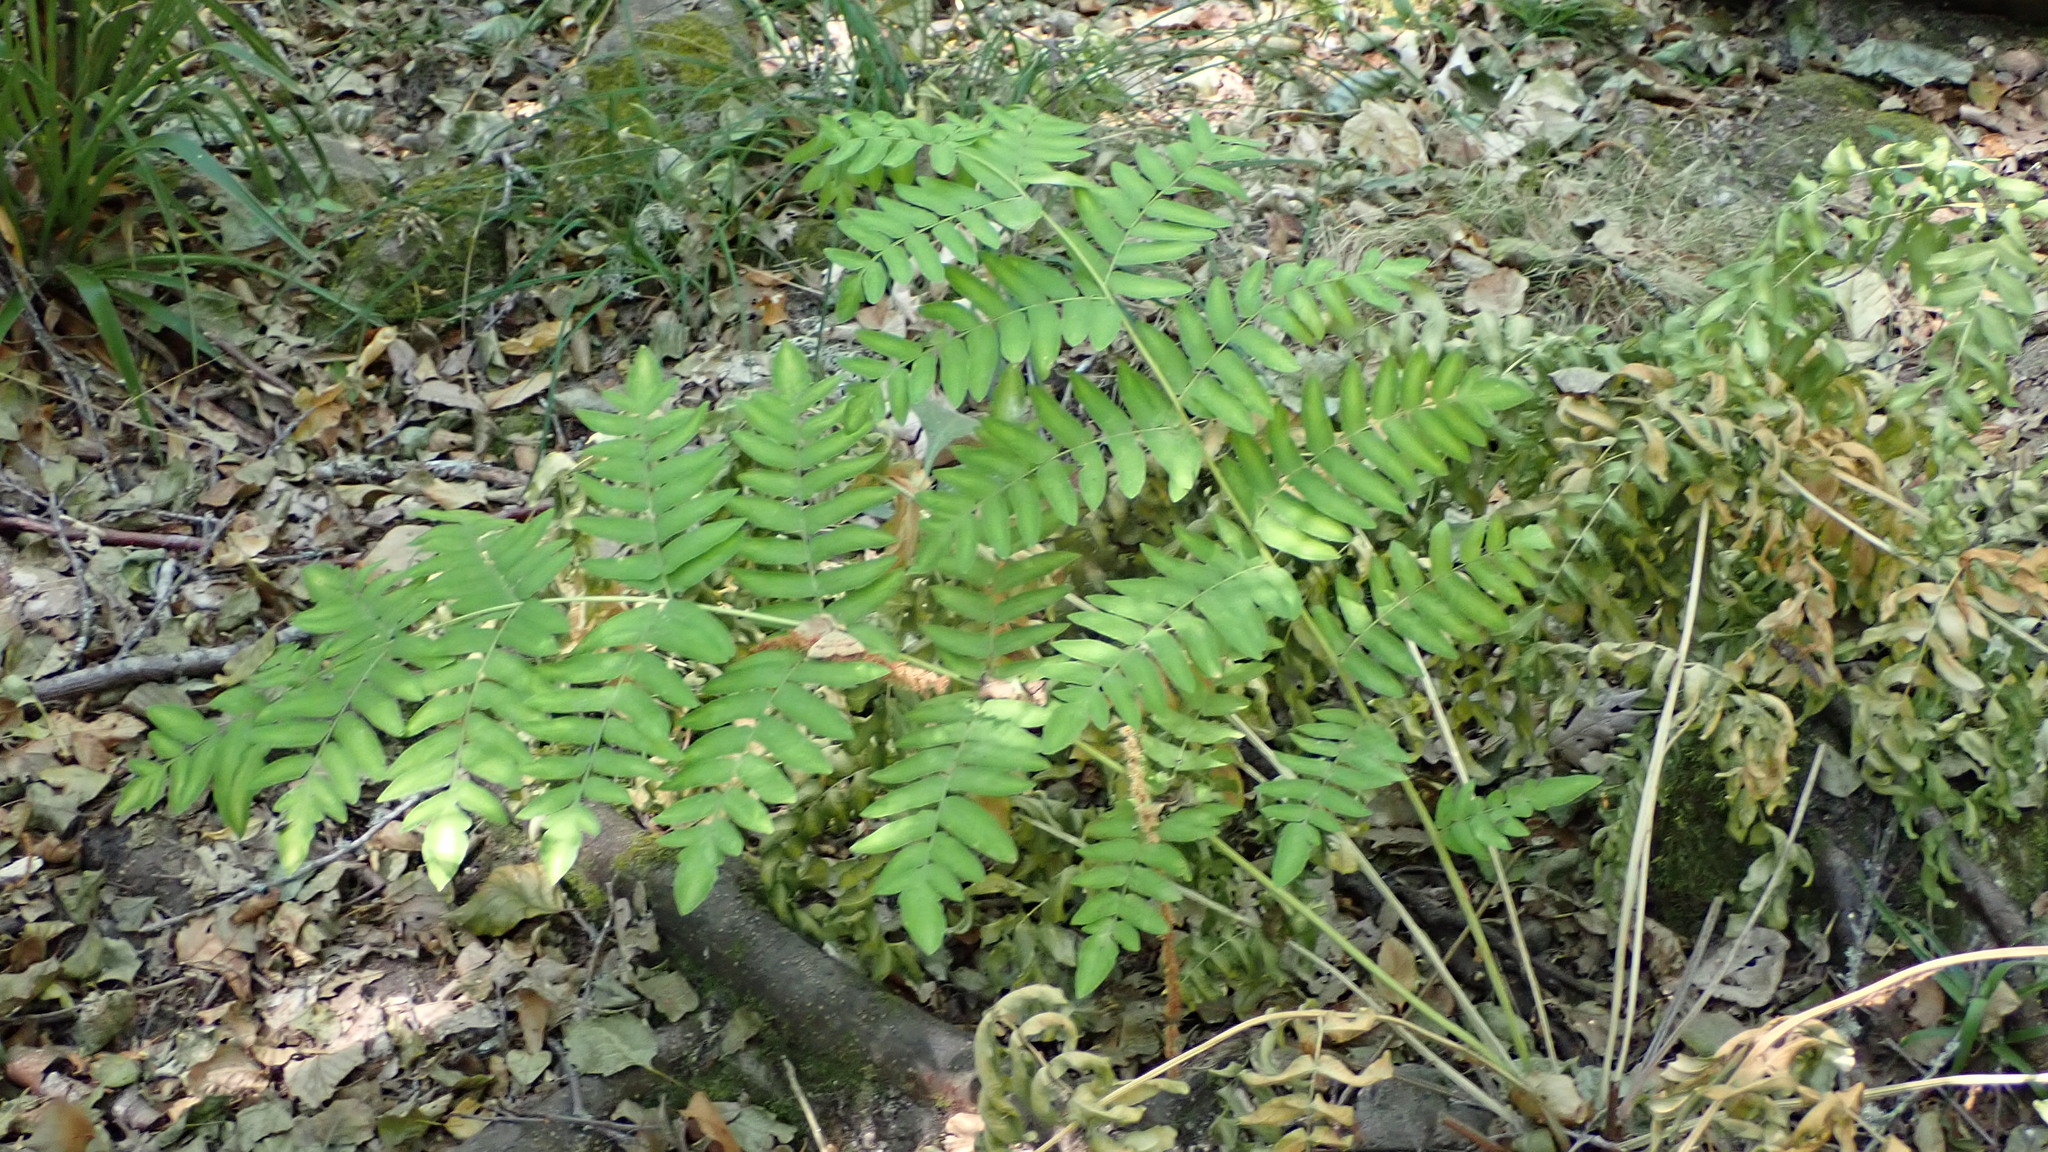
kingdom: Plantae
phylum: Tracheophyta
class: Polypodiopsida
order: Osmundales
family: Osmundaceae
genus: Osmunda
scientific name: Osmunda regalis
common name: Royal fern
